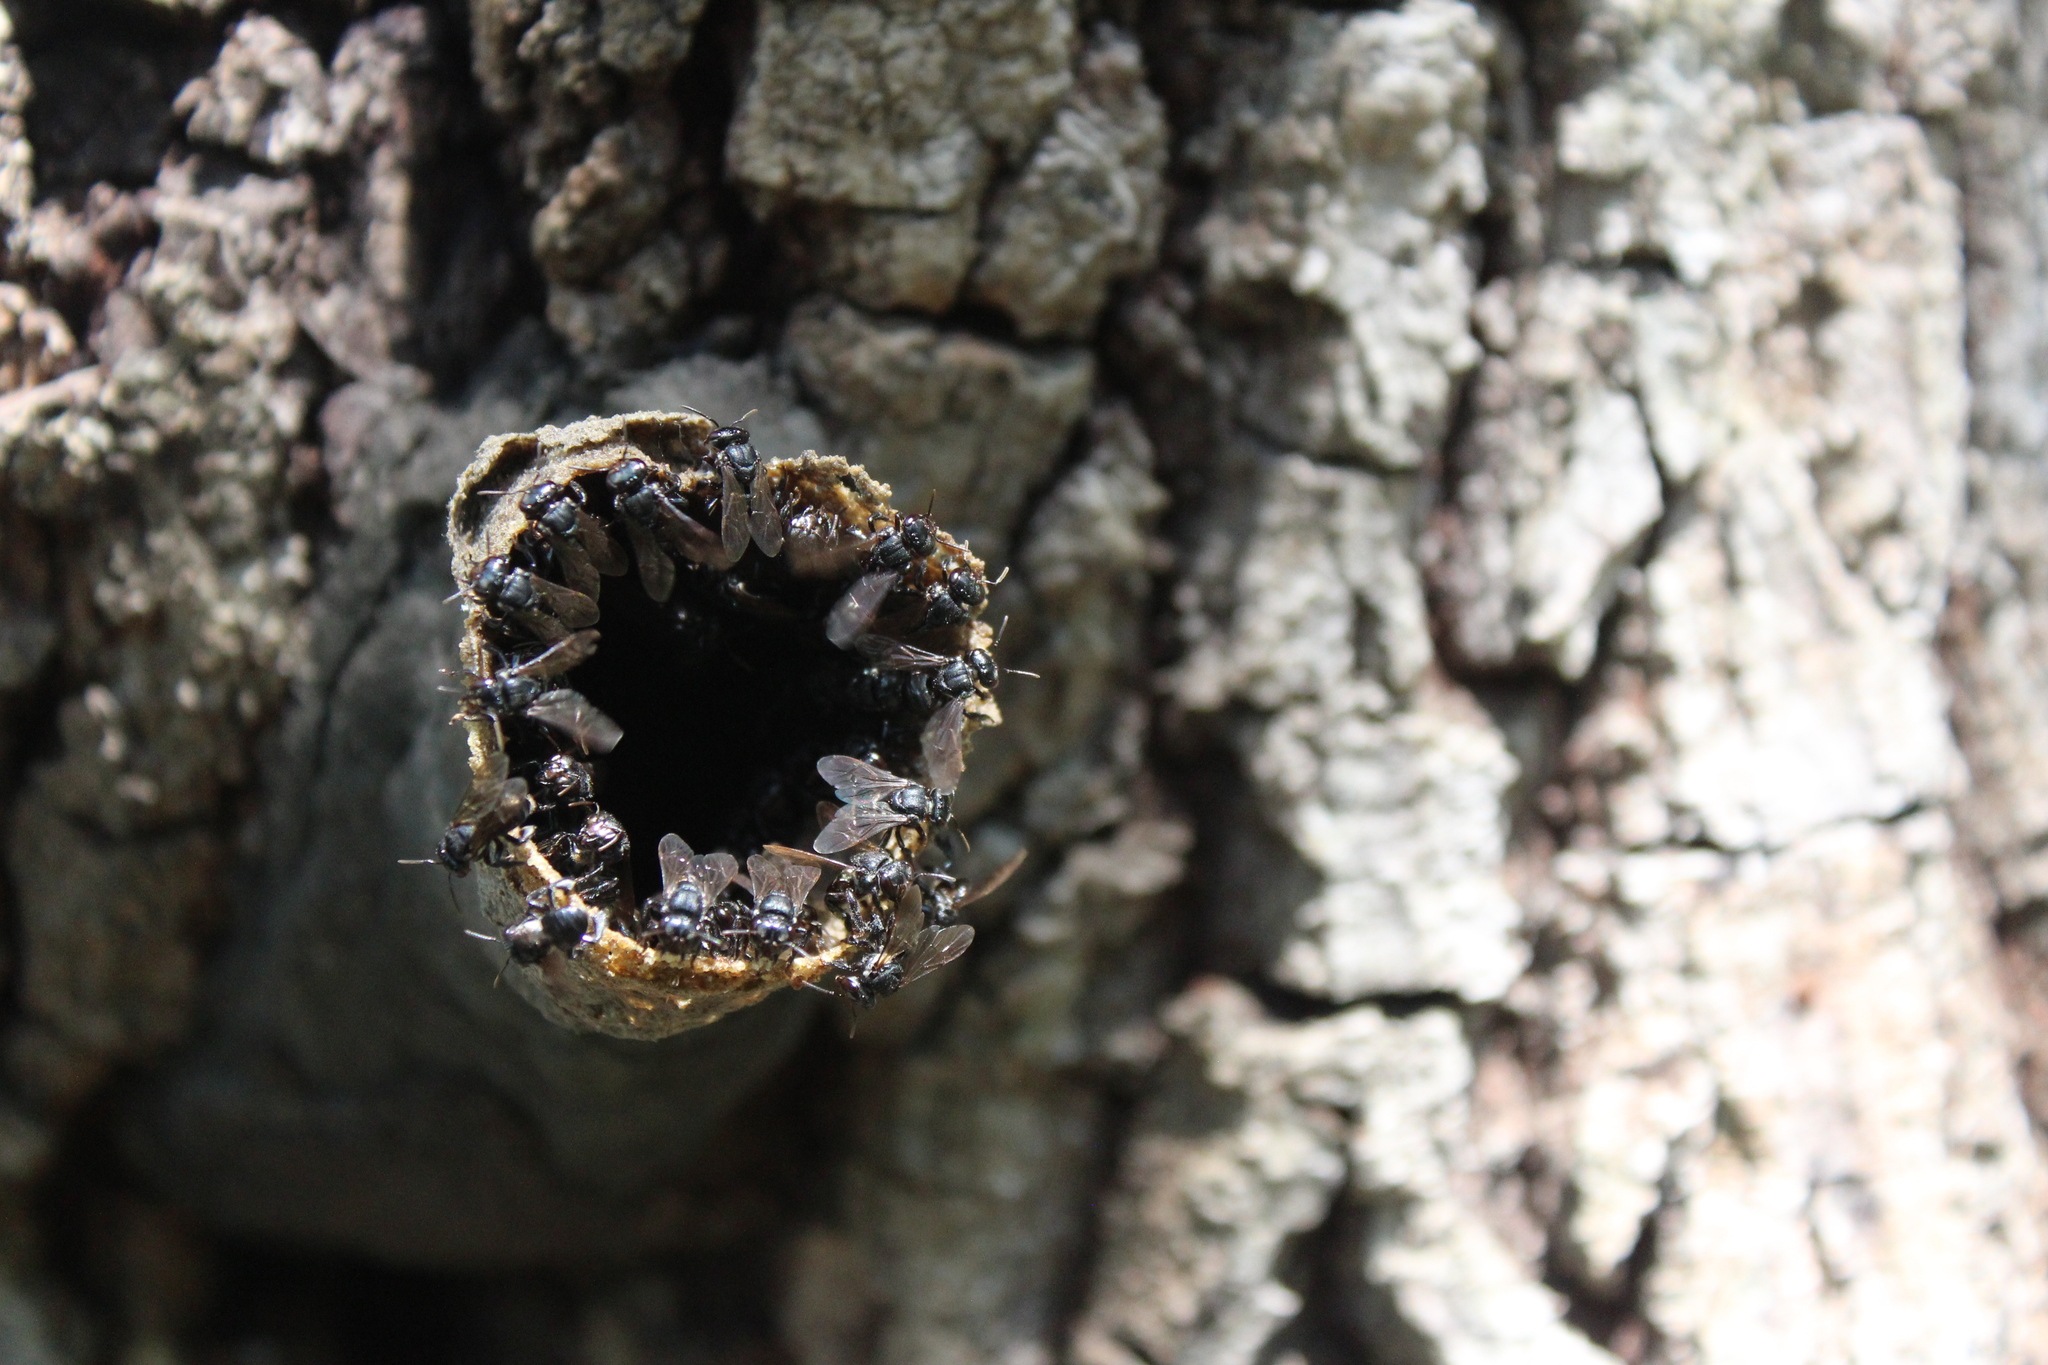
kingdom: Animalia
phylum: Arthropoda
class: Insecta
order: Hymenoptera
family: Apidae
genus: Scaptotrigona
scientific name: Scaptotrigona mexicana
